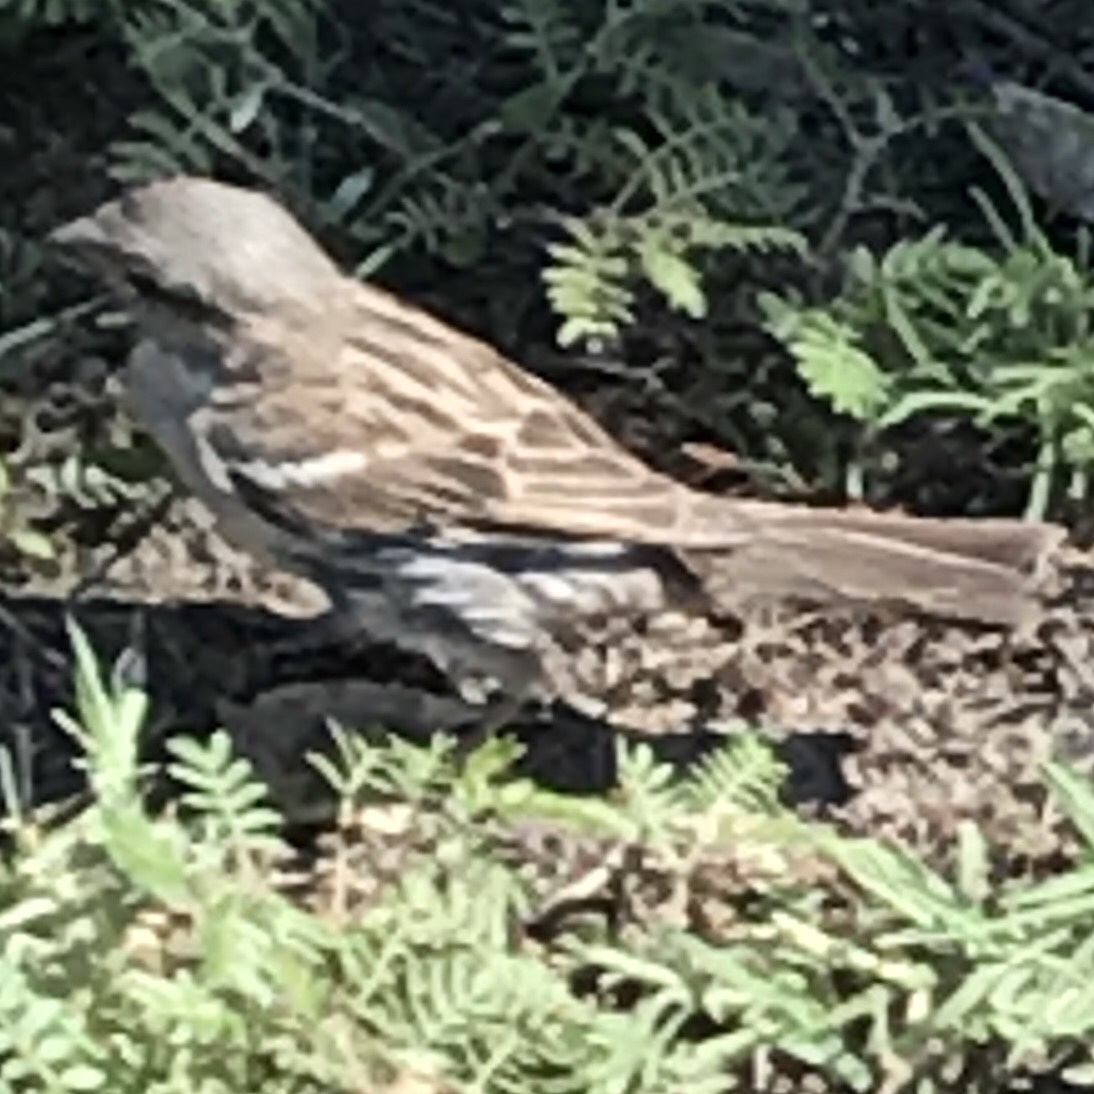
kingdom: Animalia
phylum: Chordata
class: Aves
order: Passeriformes
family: Passeridae
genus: Passer
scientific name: Passer domesticus
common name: House sparrow
